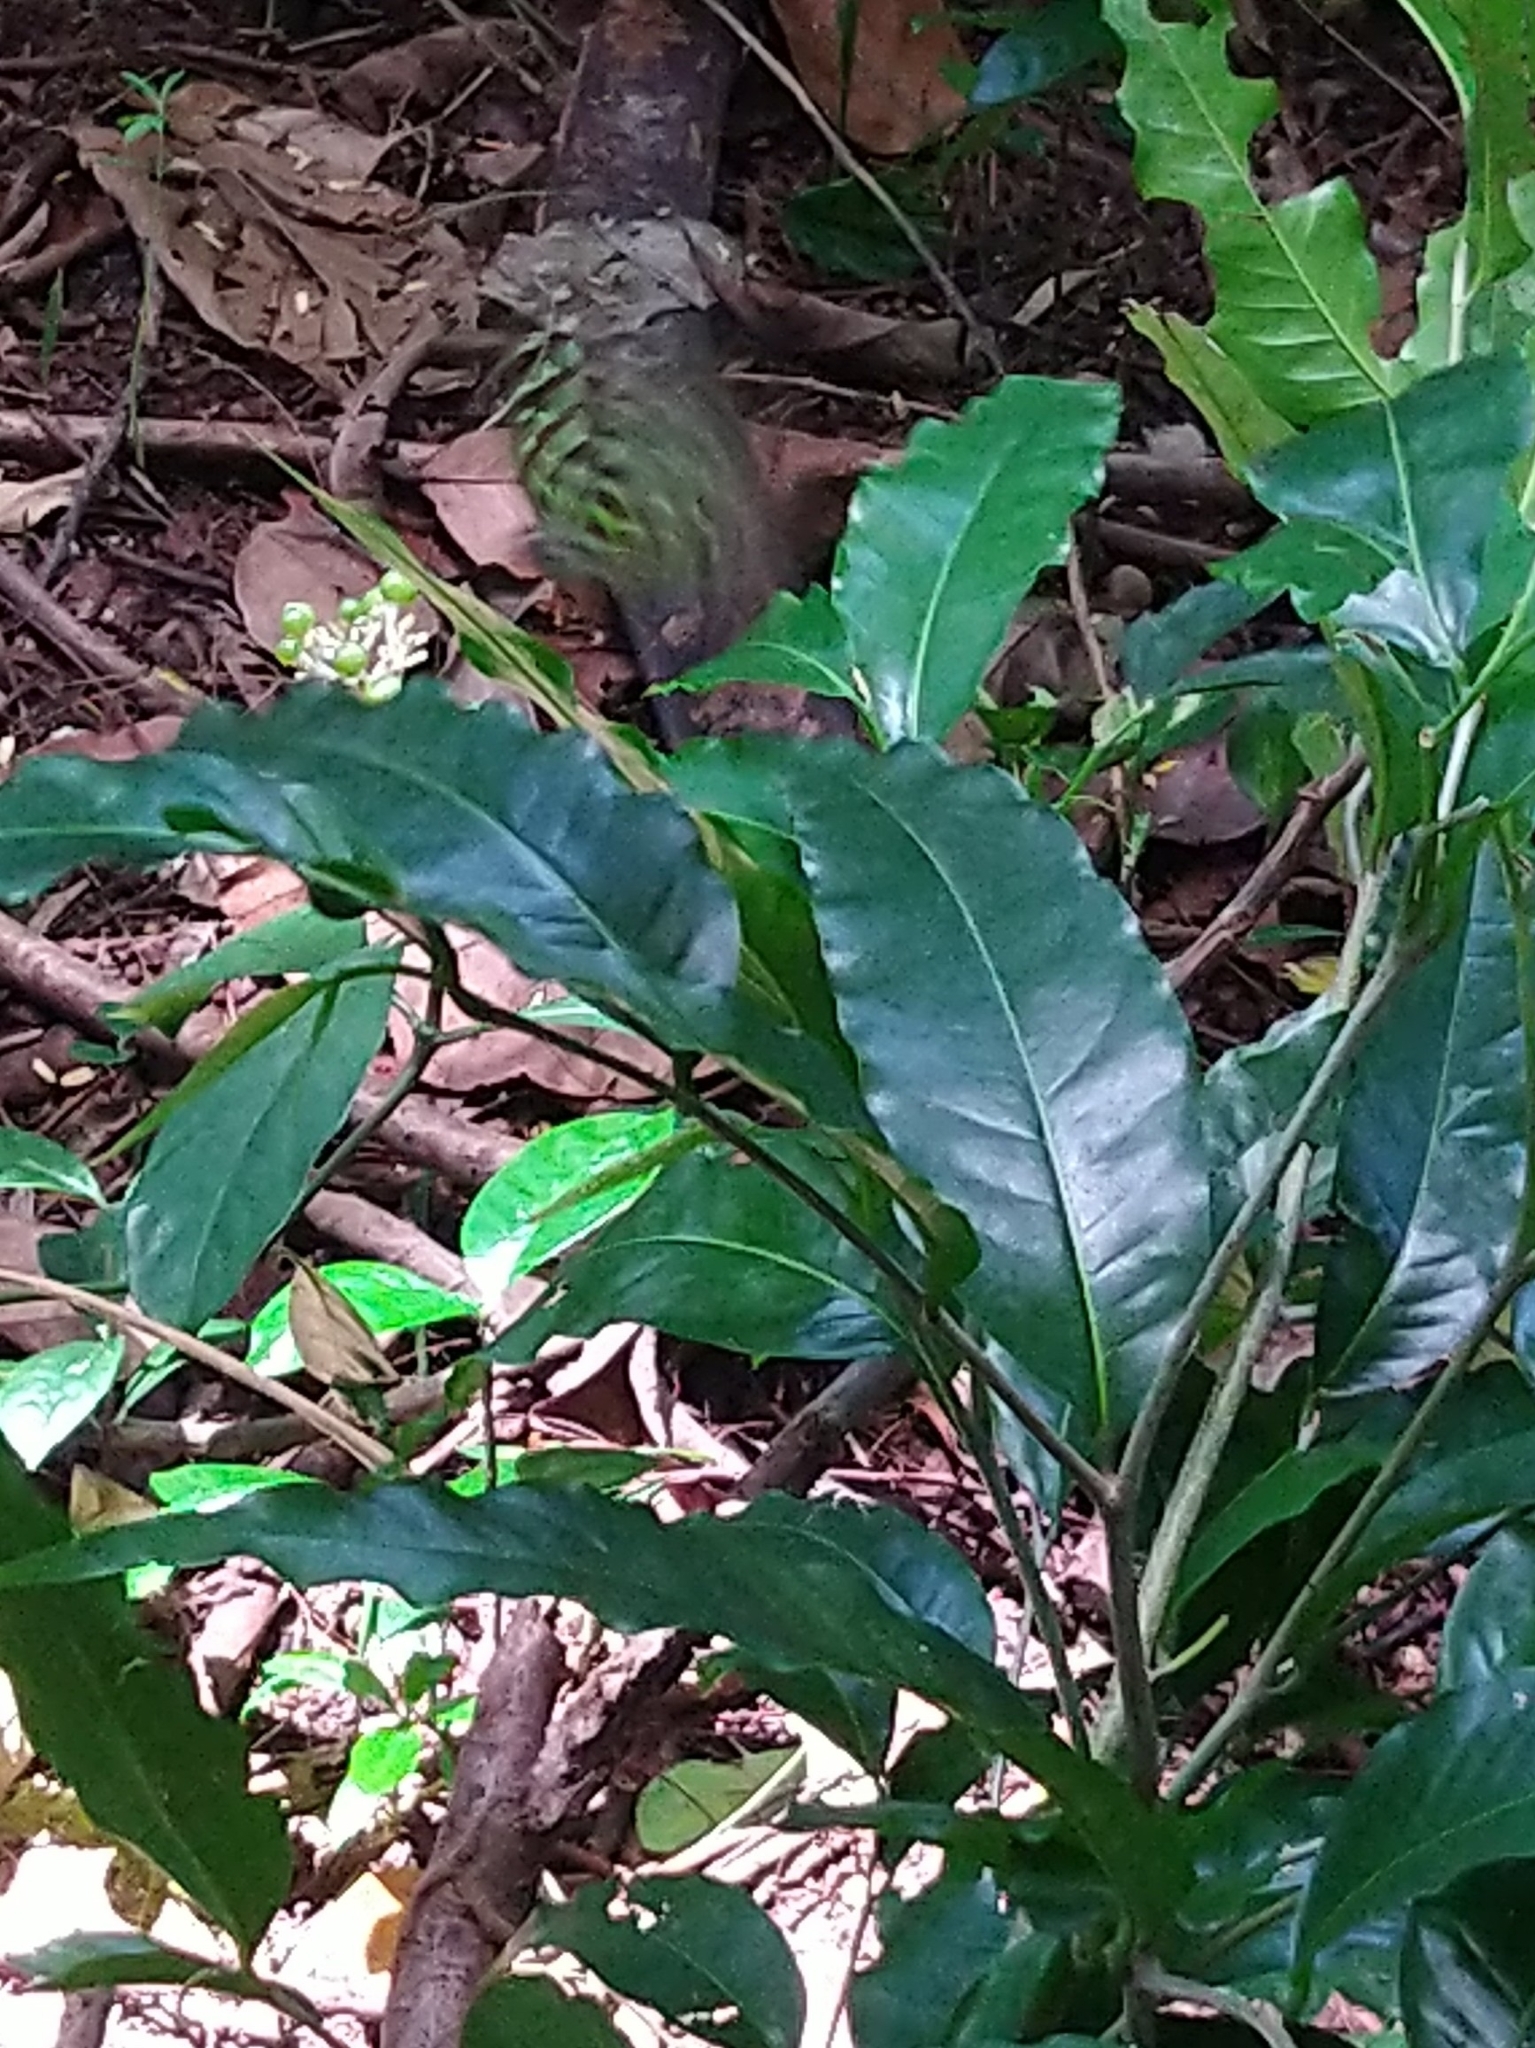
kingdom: Animalia
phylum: Arthropoda
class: Insecta
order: Lepidoptera
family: Papilionidae
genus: Graphium
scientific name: Graphium agamemnon
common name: Tailed jay
